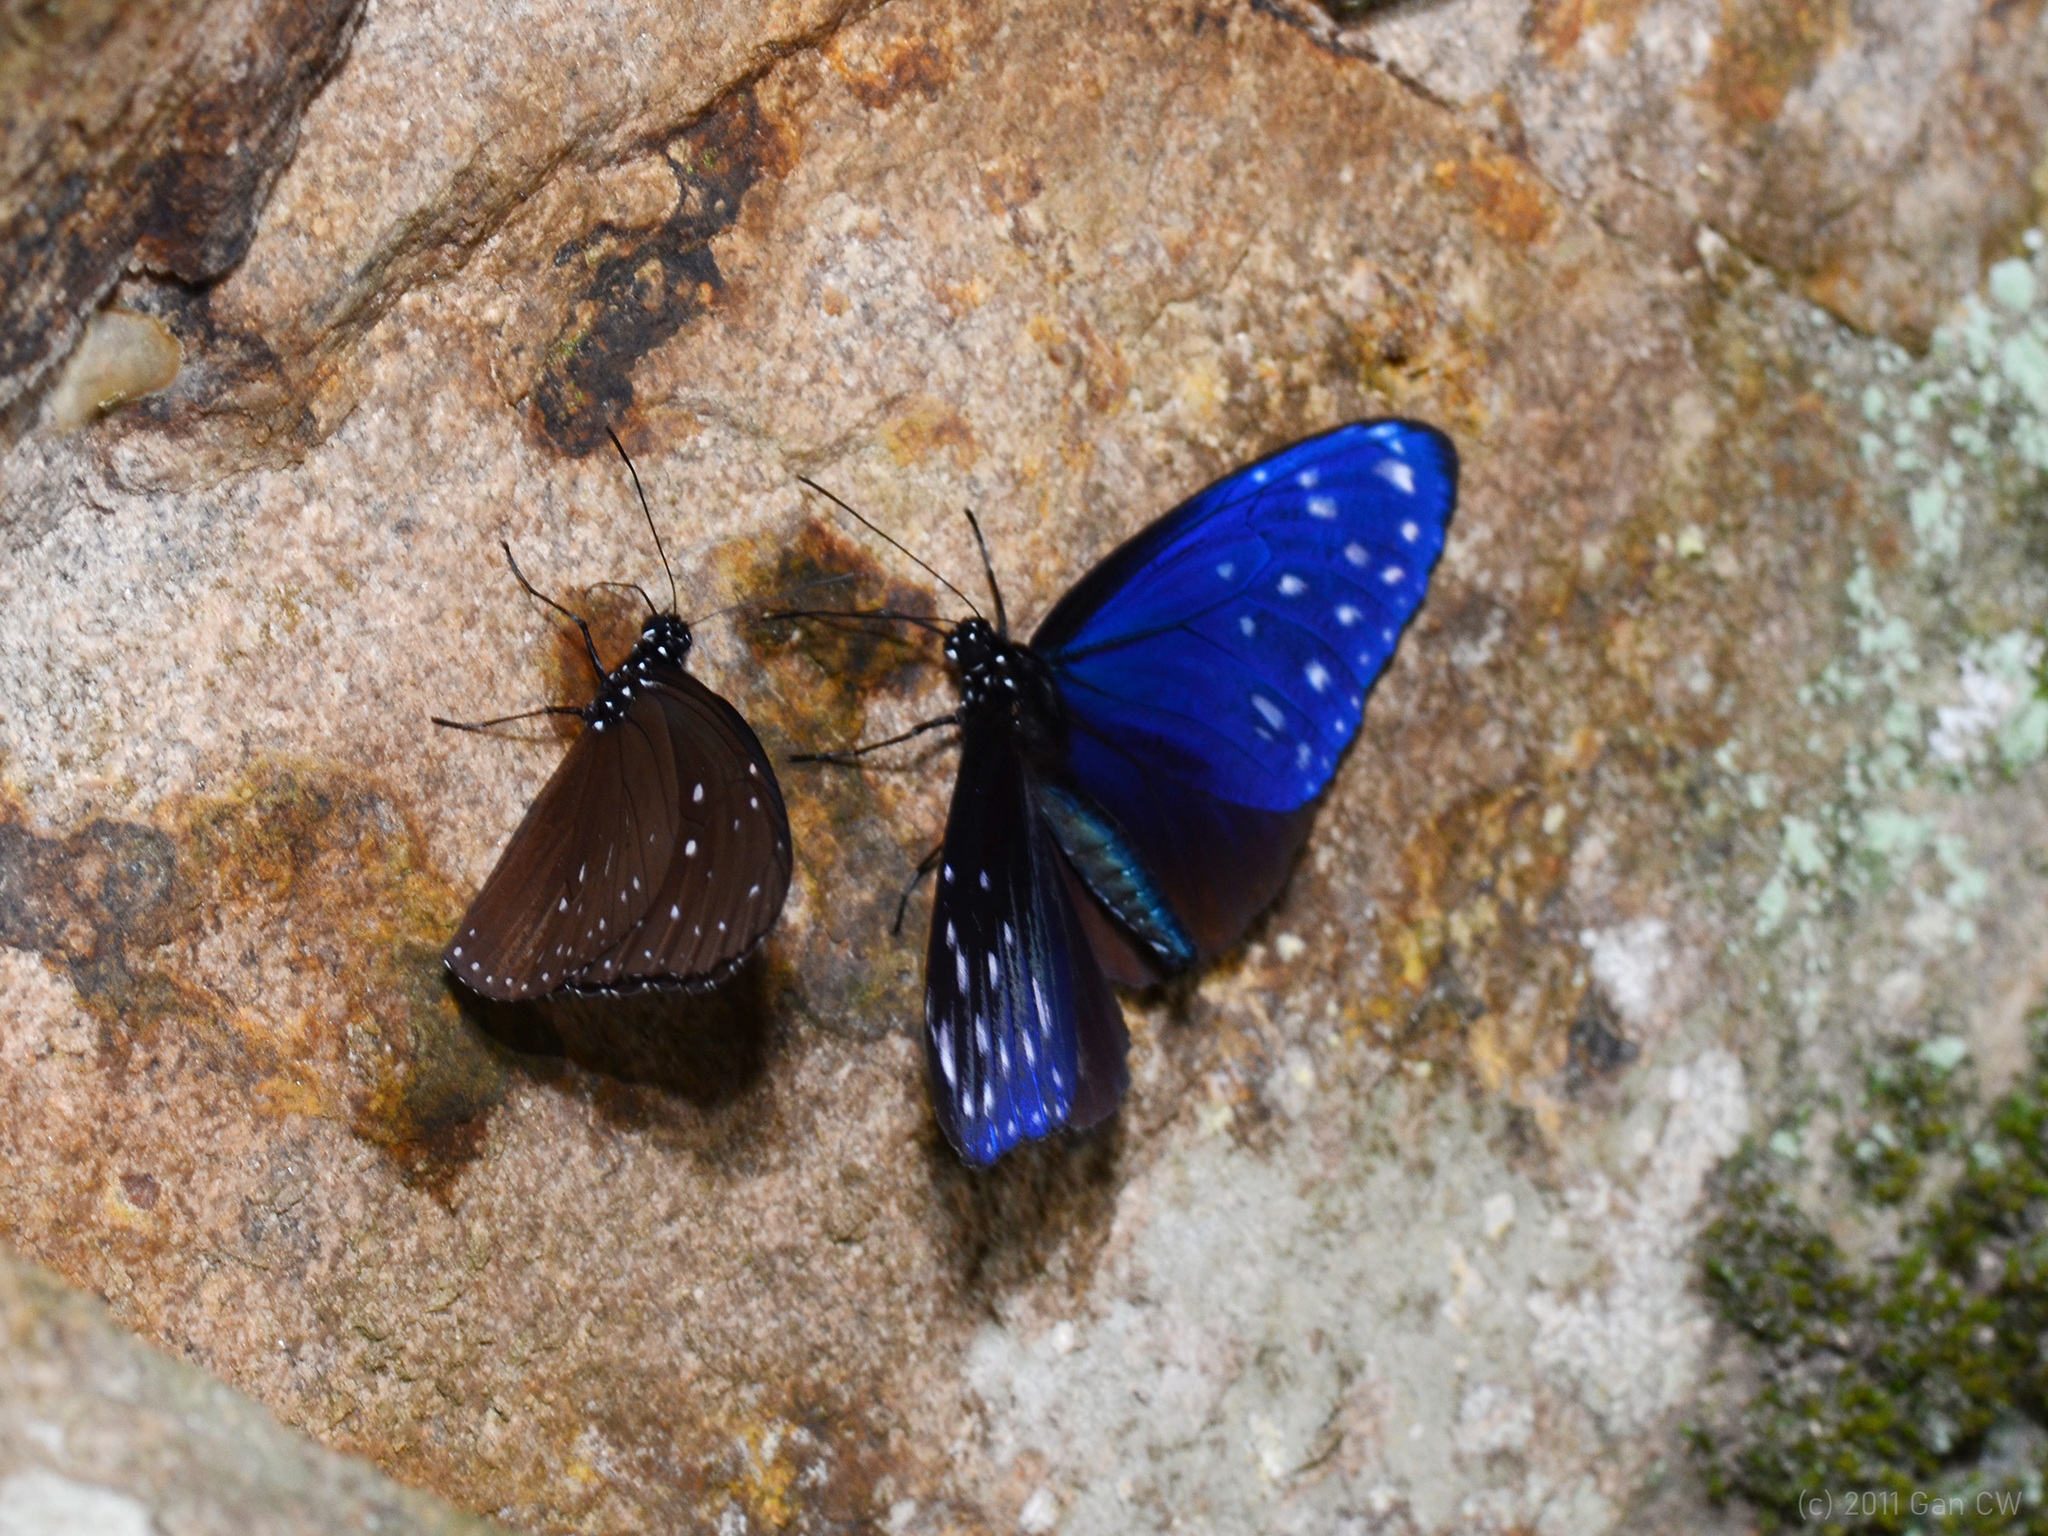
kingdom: Animalia
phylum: Arthropoda
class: Insecta
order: Lepidoptera
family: Nymphalidae
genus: Euploea
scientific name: Euploea mulciber
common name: Striped blue crow butterfly
